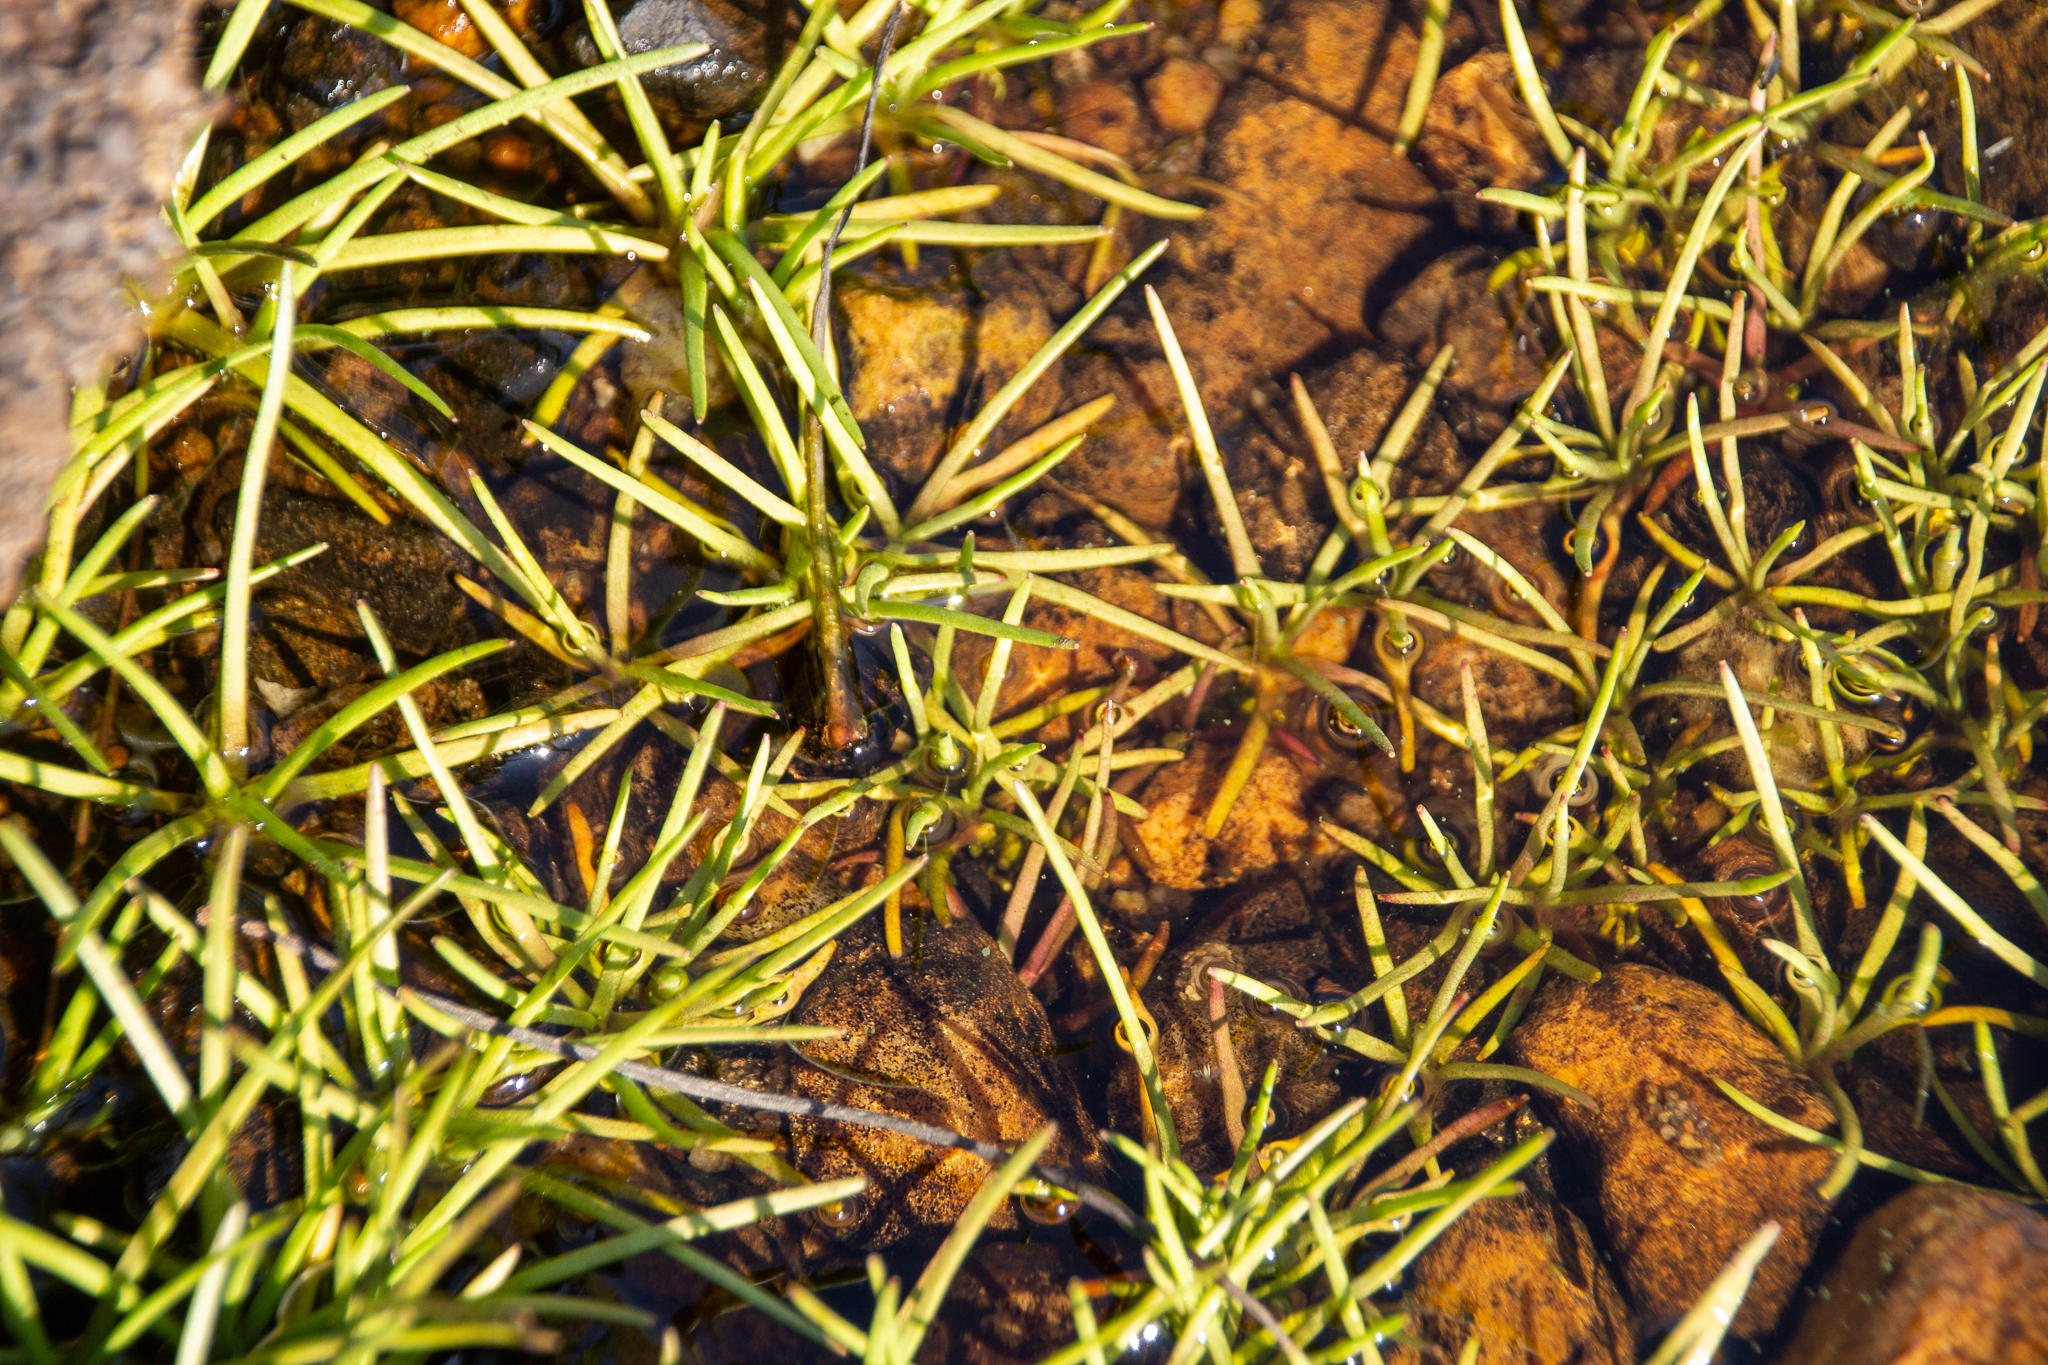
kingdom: Plantae
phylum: Tracheophyta
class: Magnoliopsida
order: Lamiales
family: Plantaginaceae
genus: Littorella
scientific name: Littorella uniflora
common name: Shoreweed
